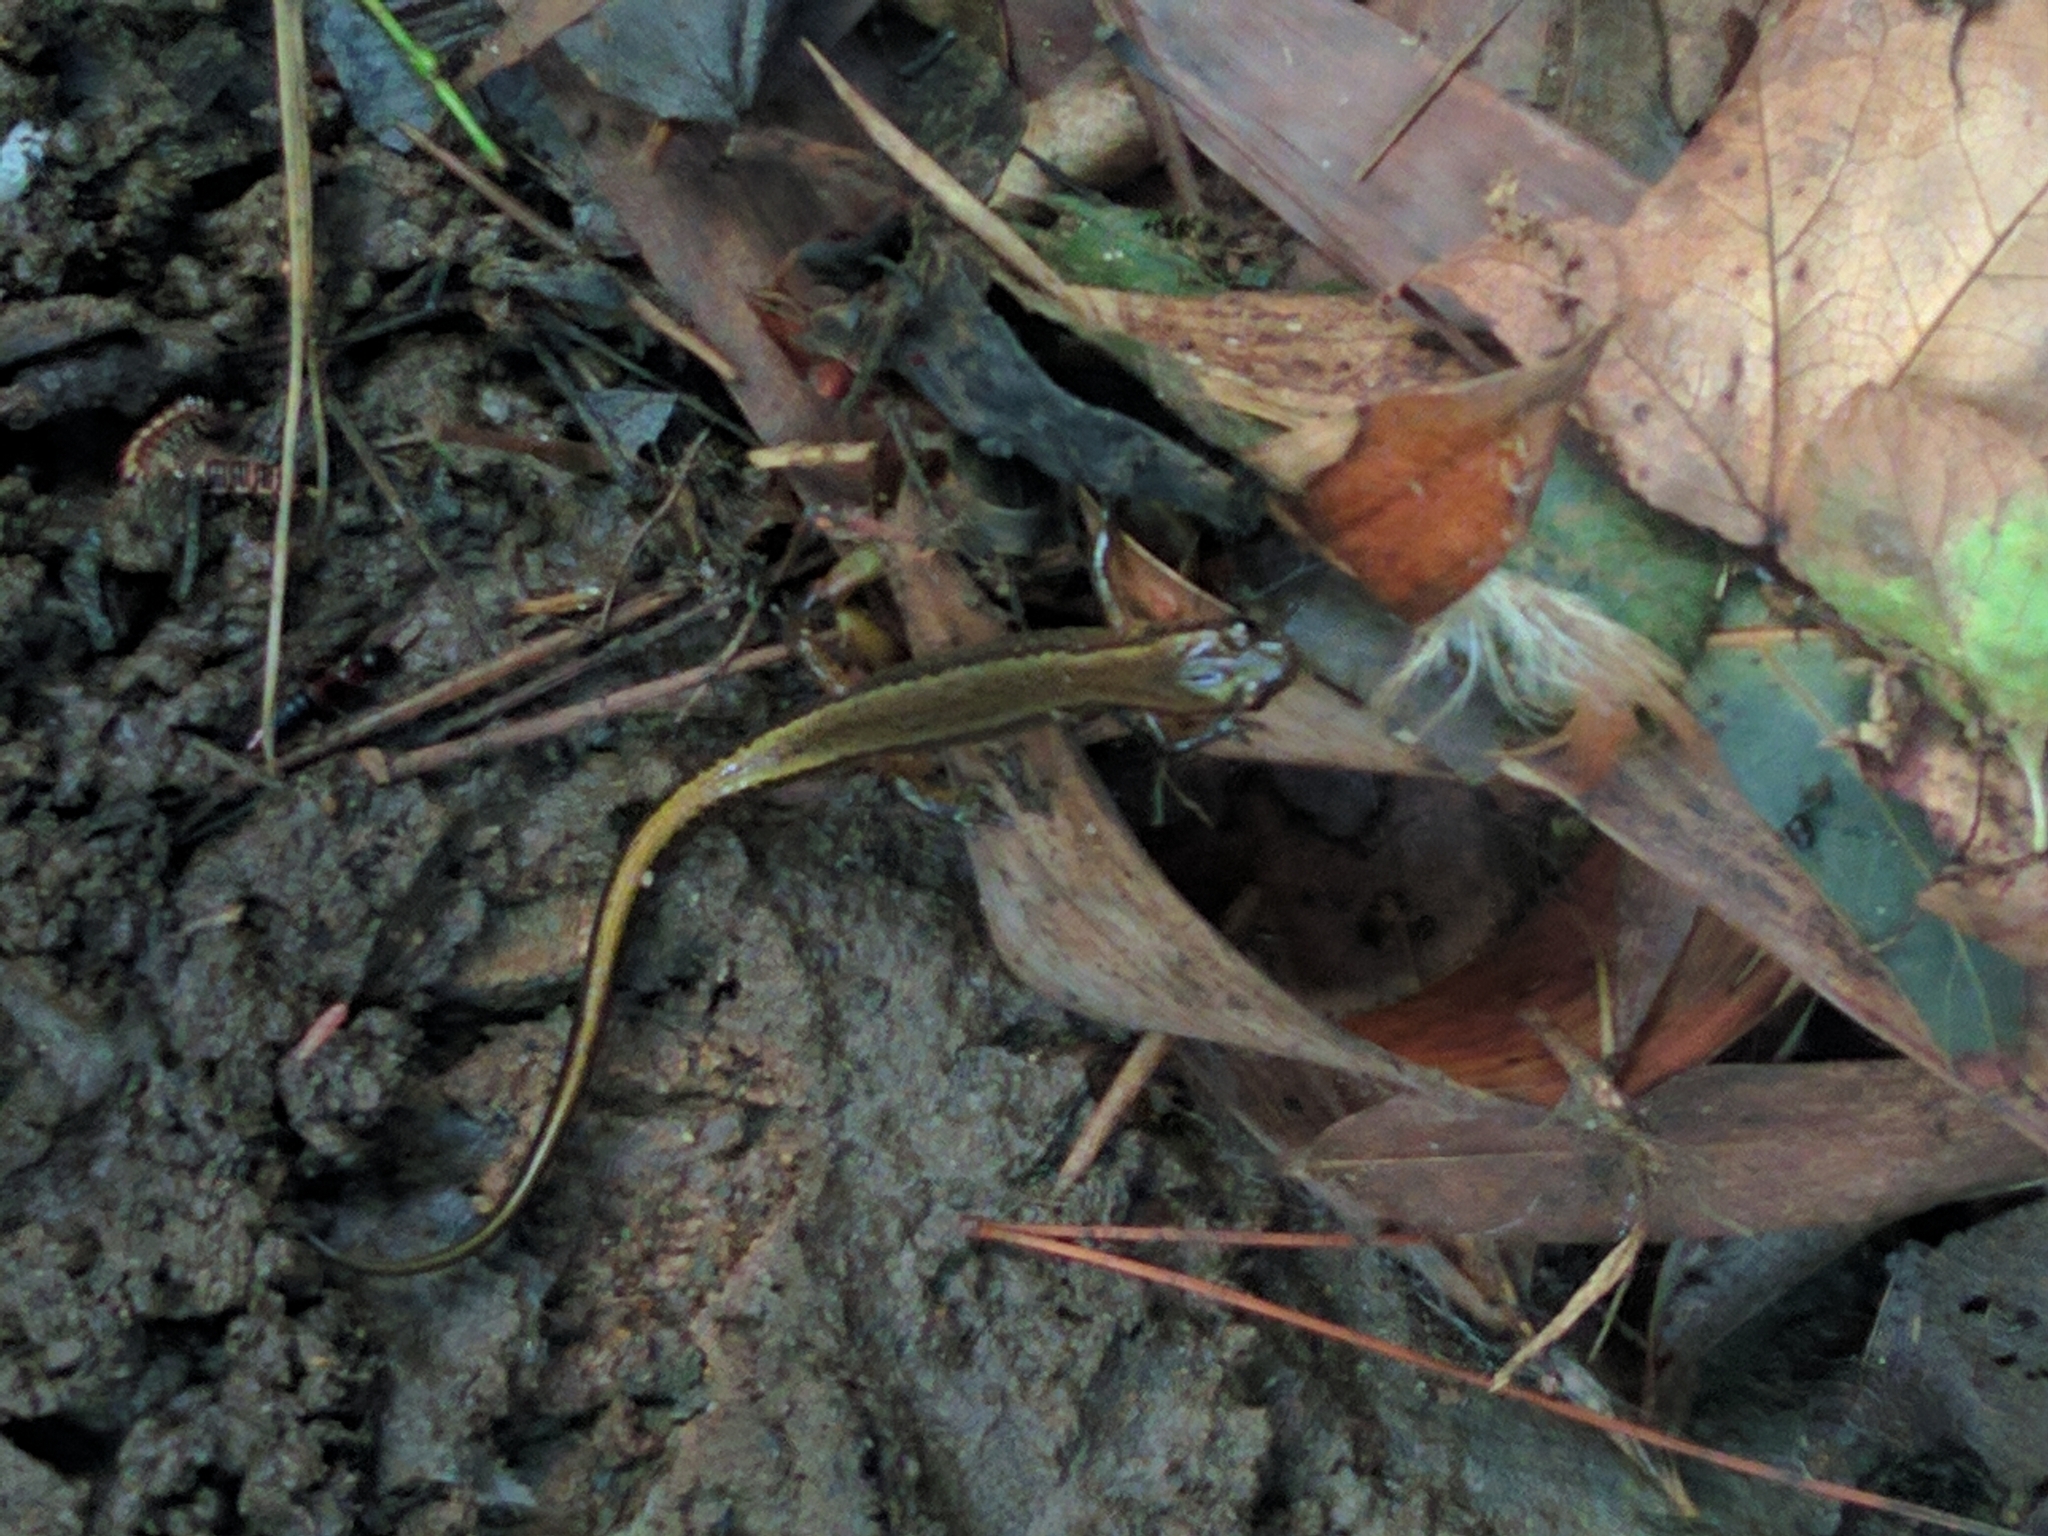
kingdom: Animalia
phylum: Chordata
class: Amphibia
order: Caudata
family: Plethodontidae
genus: Eurycea
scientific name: Eurycea bislineata
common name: Northern two-lined salamander
